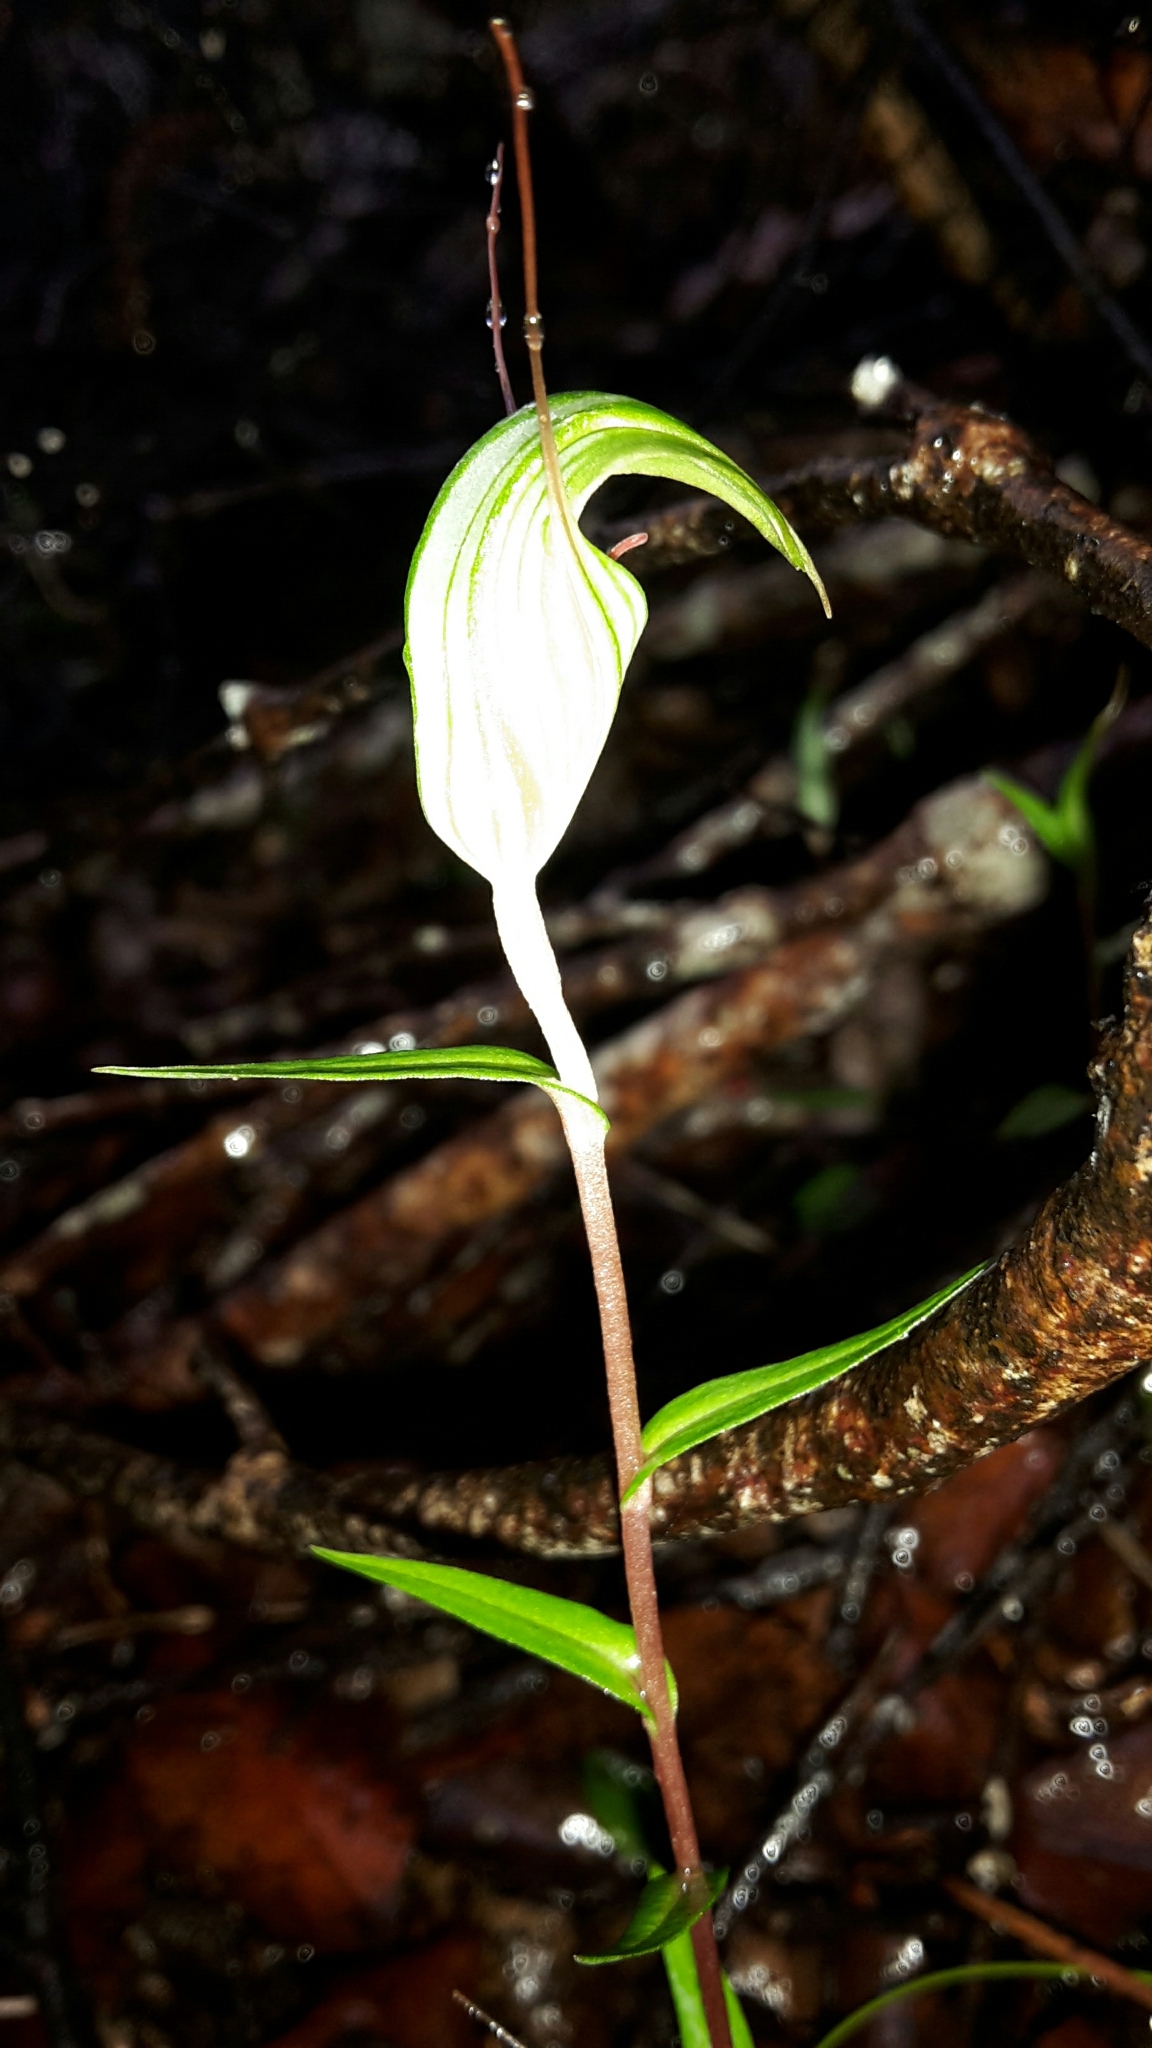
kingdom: Plantae
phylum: Tracheophyta
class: Liliopsida
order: Asparagales
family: Orchidaceae
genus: Pterostylis
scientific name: Pterostylis alobula
